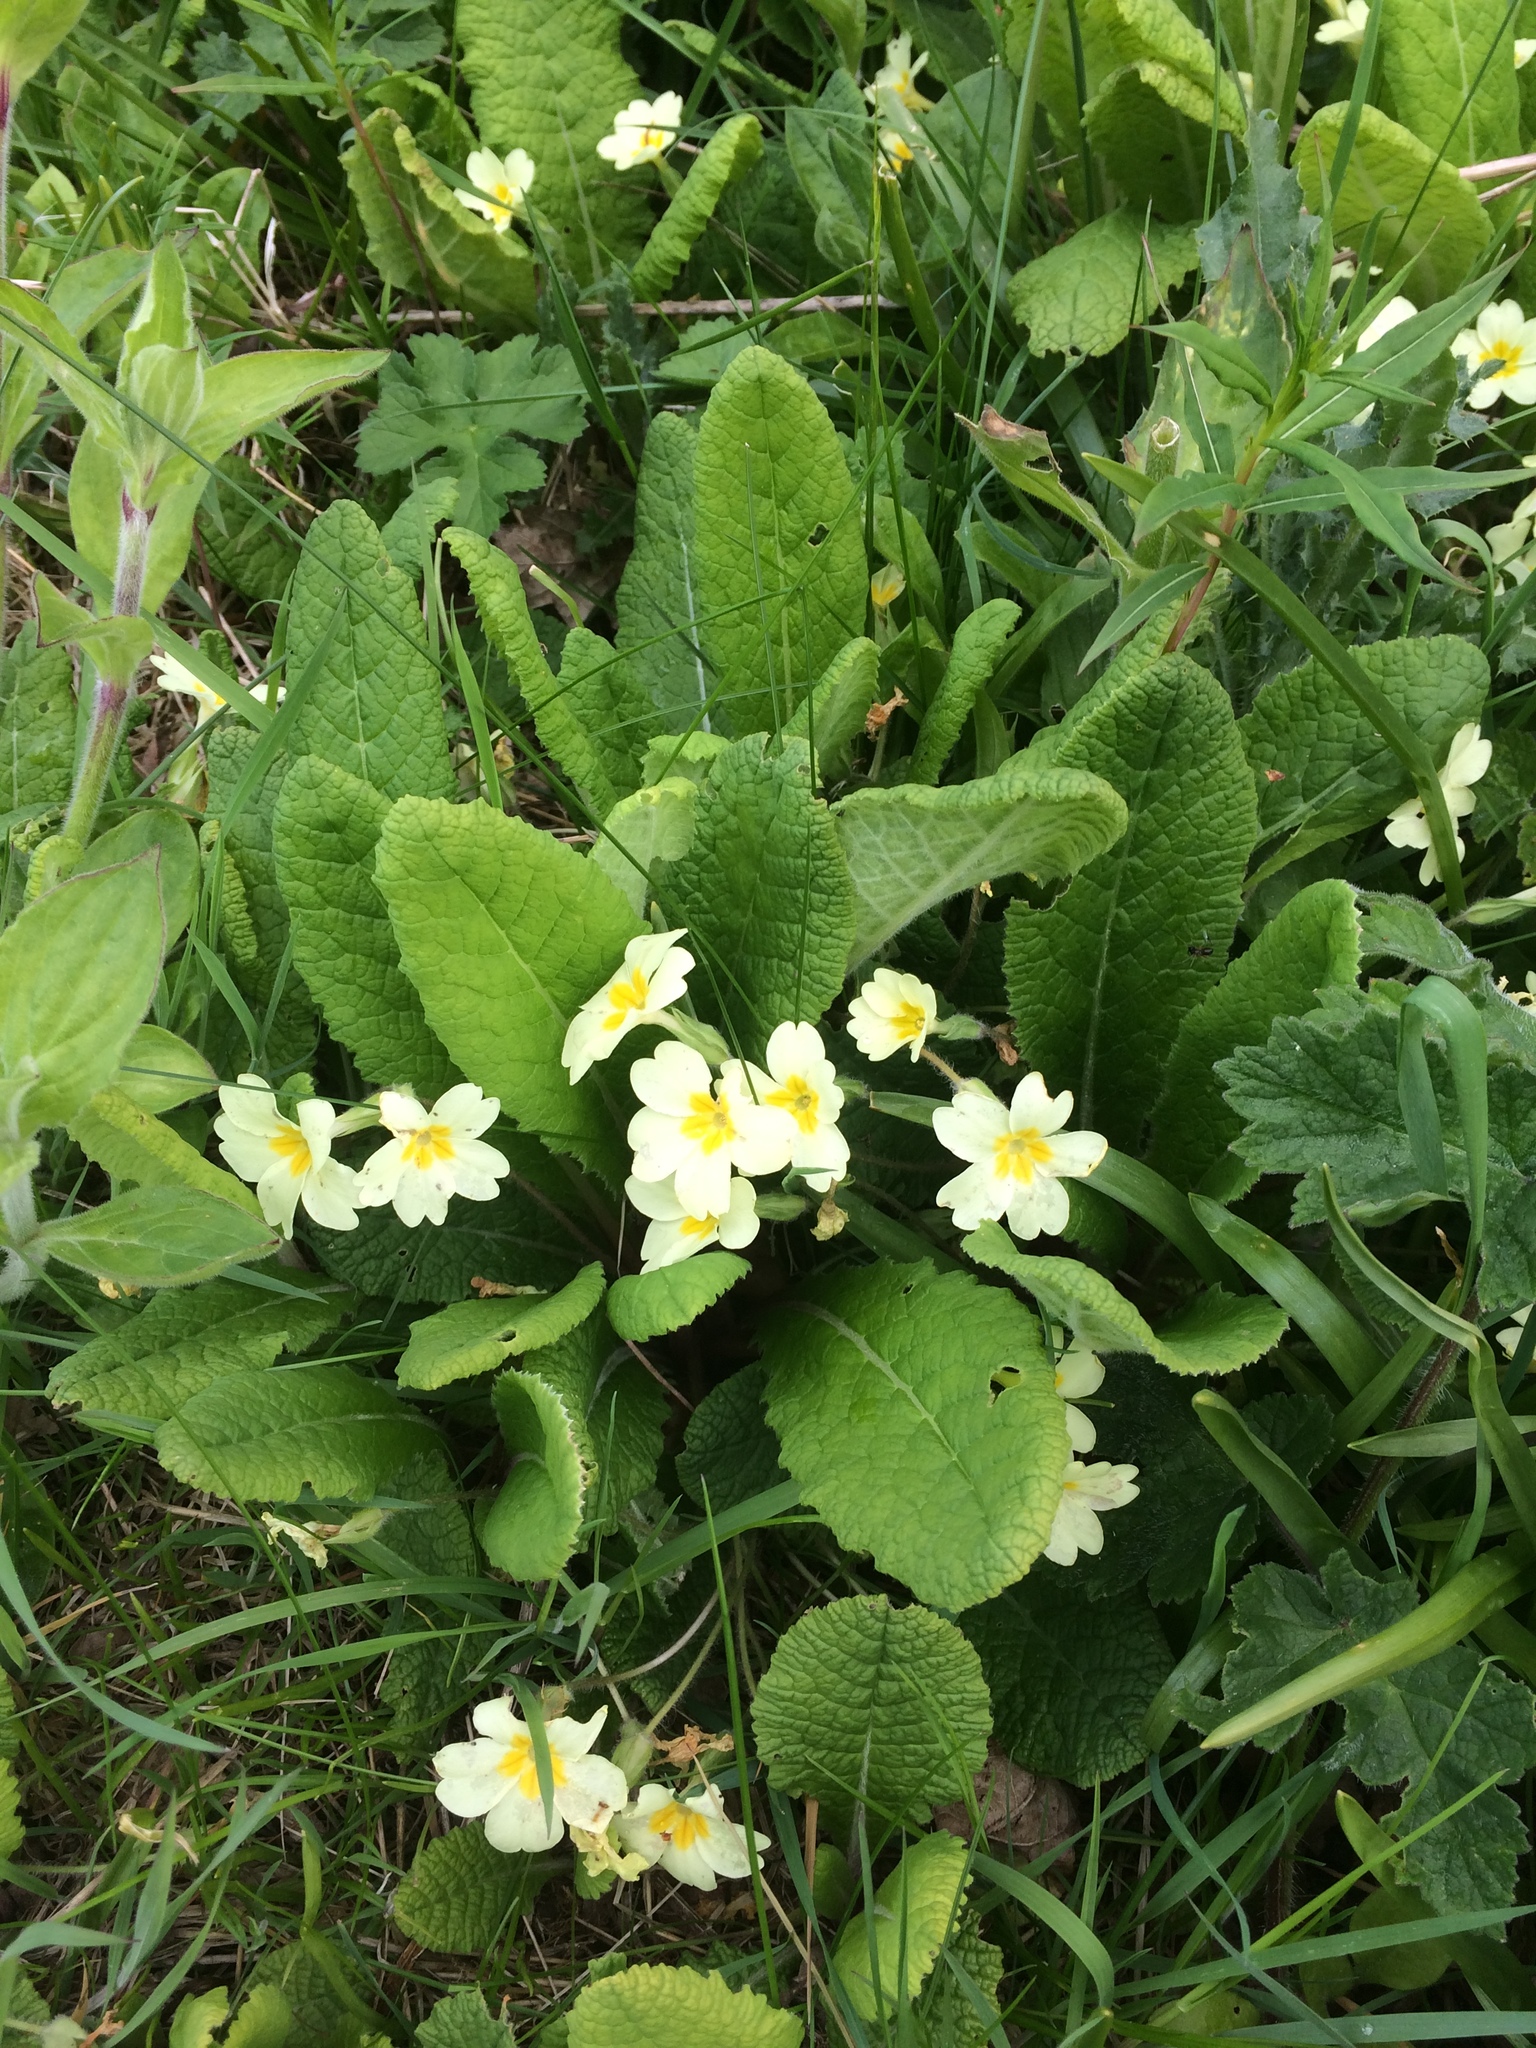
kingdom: Plantae
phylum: Tracheophyta
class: Magnoliopsida
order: Ericales
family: Primulaceae
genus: Primula
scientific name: Primula vulgaris
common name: Primrose
